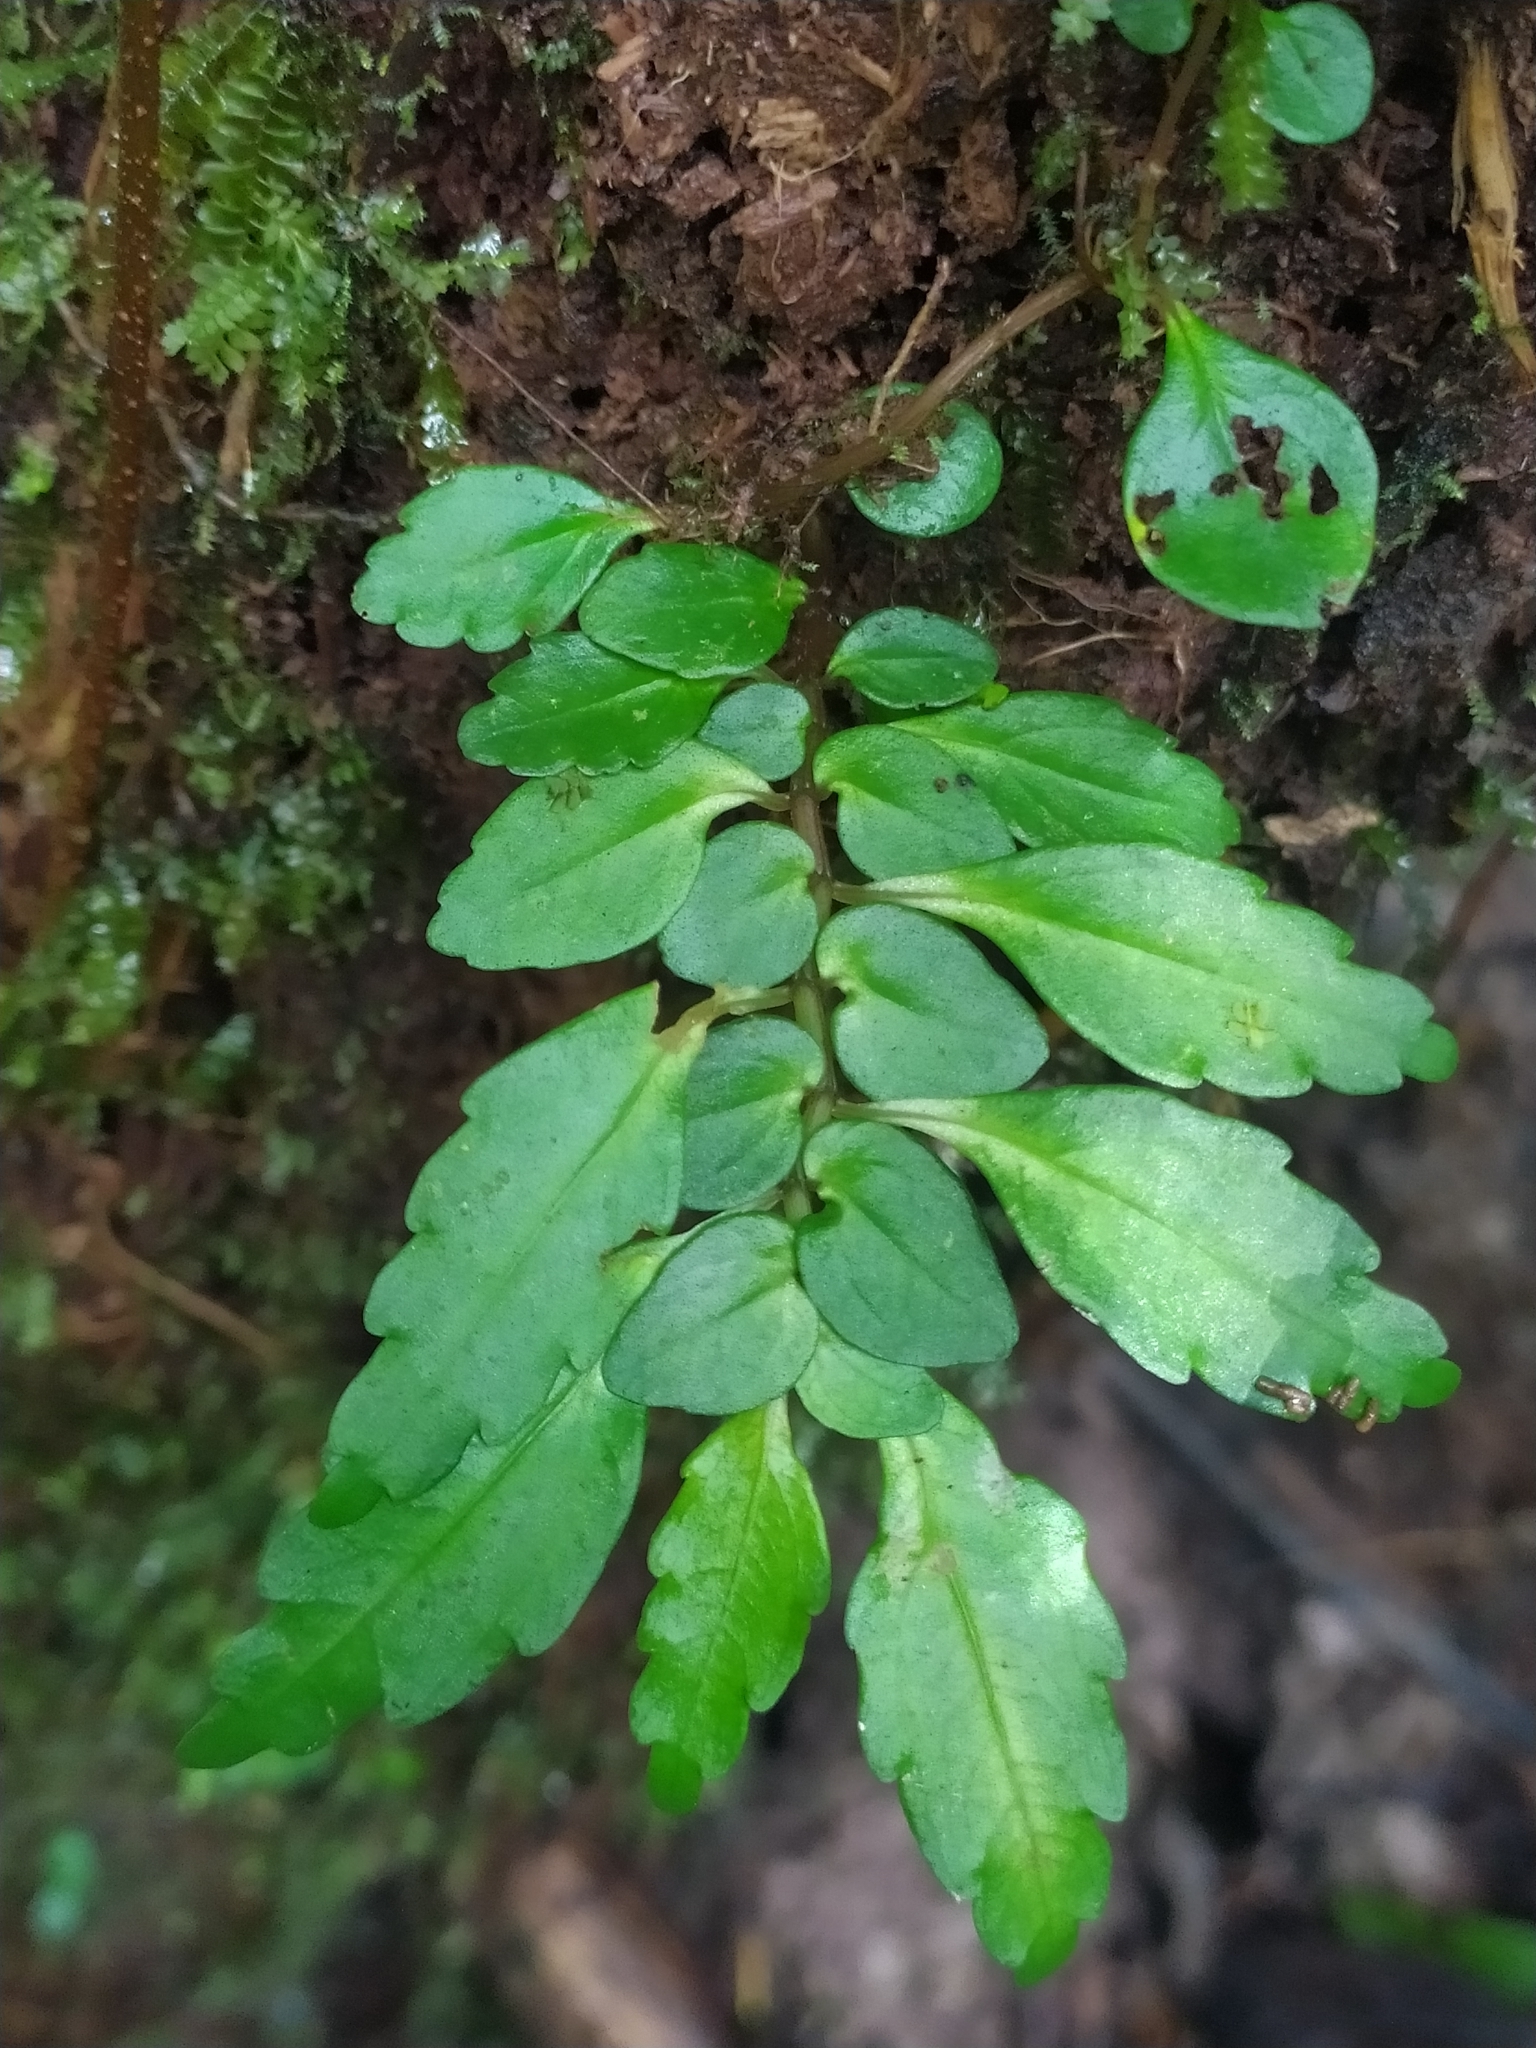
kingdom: Plantae
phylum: Tracheophyta
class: Magnoliopsida
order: Rosales
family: Urticaceae
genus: Pilea
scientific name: Pilea imparifolia
